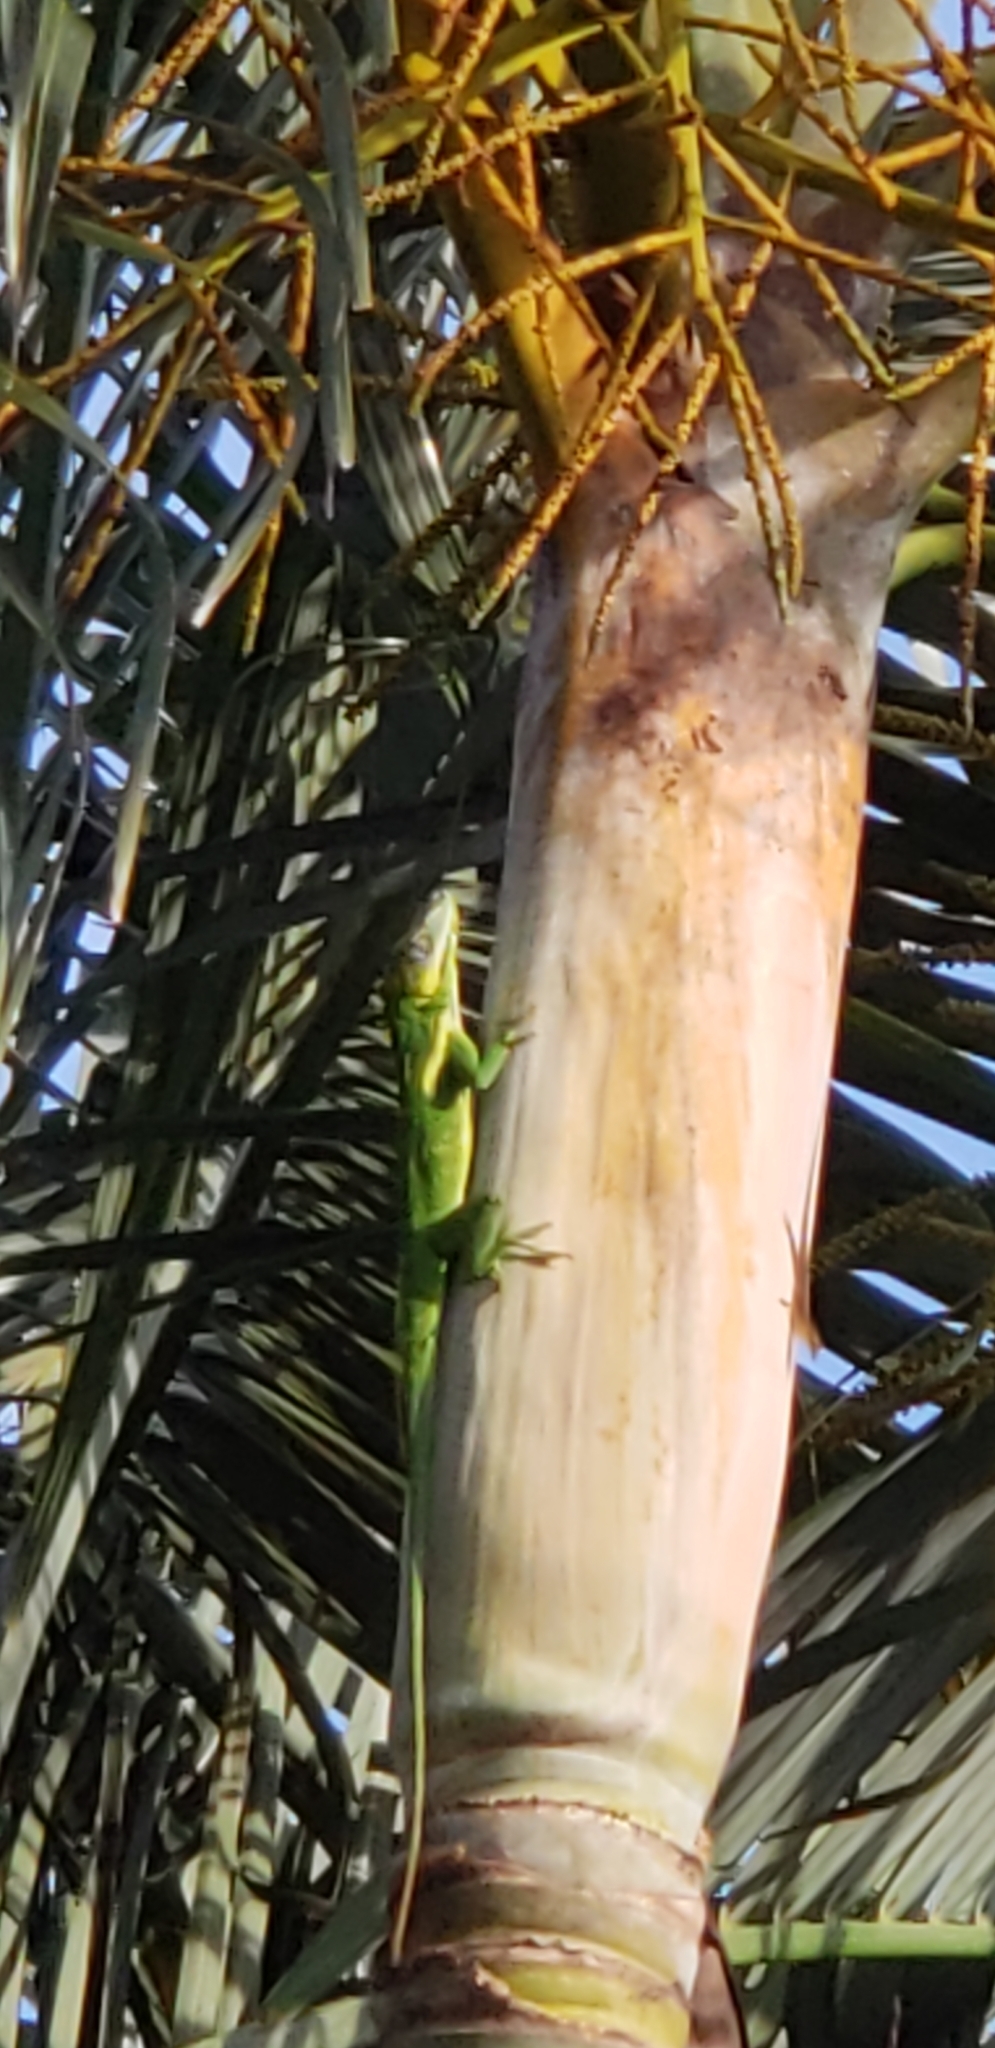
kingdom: Animalia
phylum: Chordata
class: Squamata
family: Dactyloidae
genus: Anolis
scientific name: Anolis equestris
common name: Knight anole
